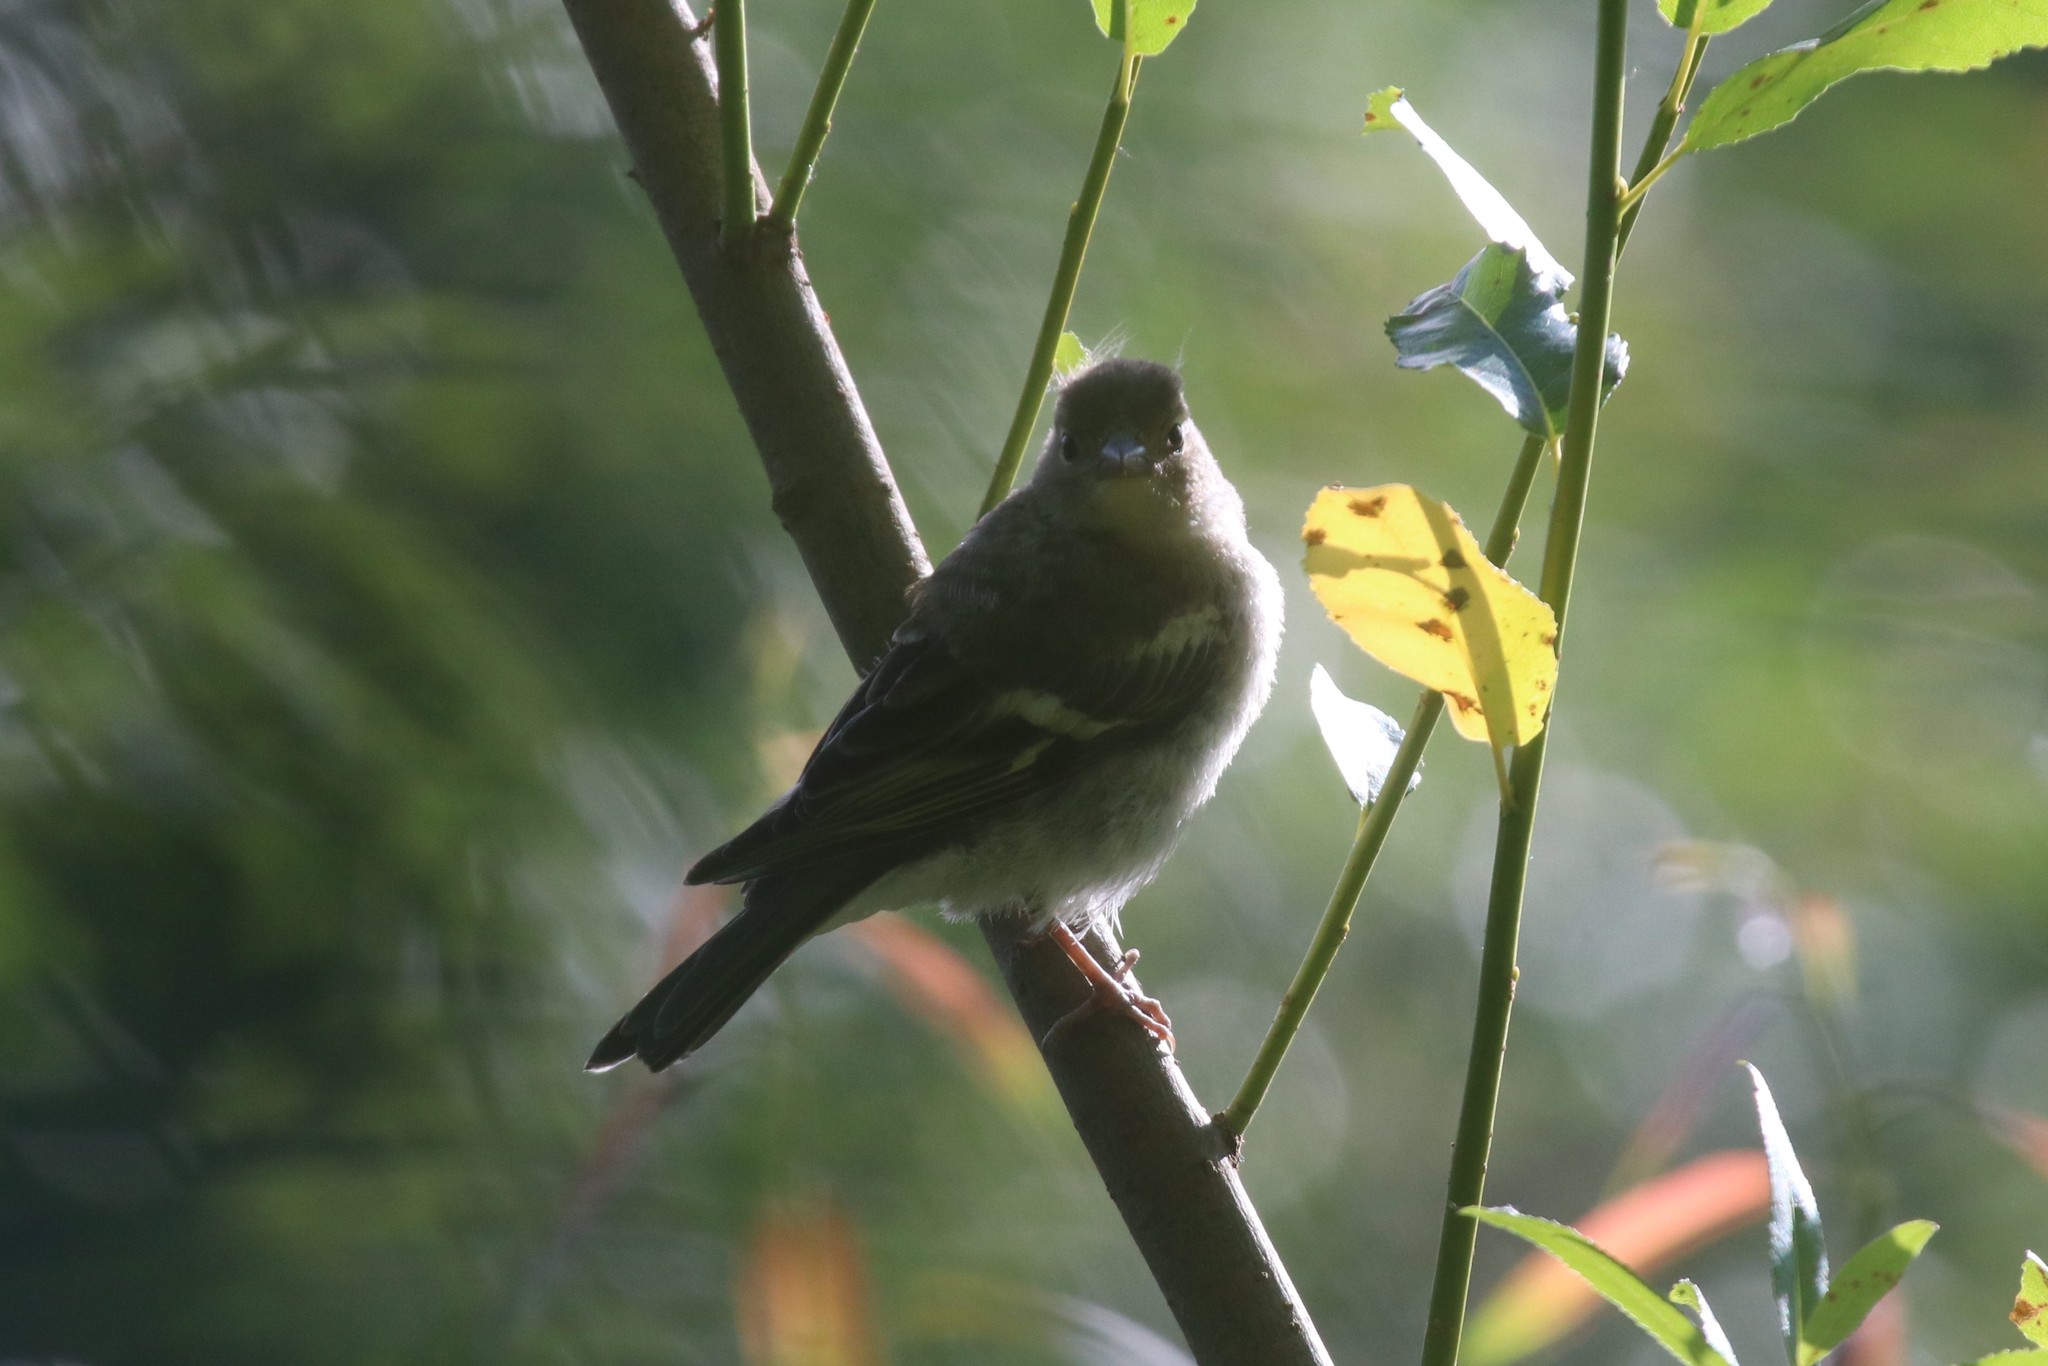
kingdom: Animalia
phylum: Chordata
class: Aves
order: Passeriformes
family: Fringillidae
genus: Fringilla
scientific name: Fringilla coelebs
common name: Common chaffinch
